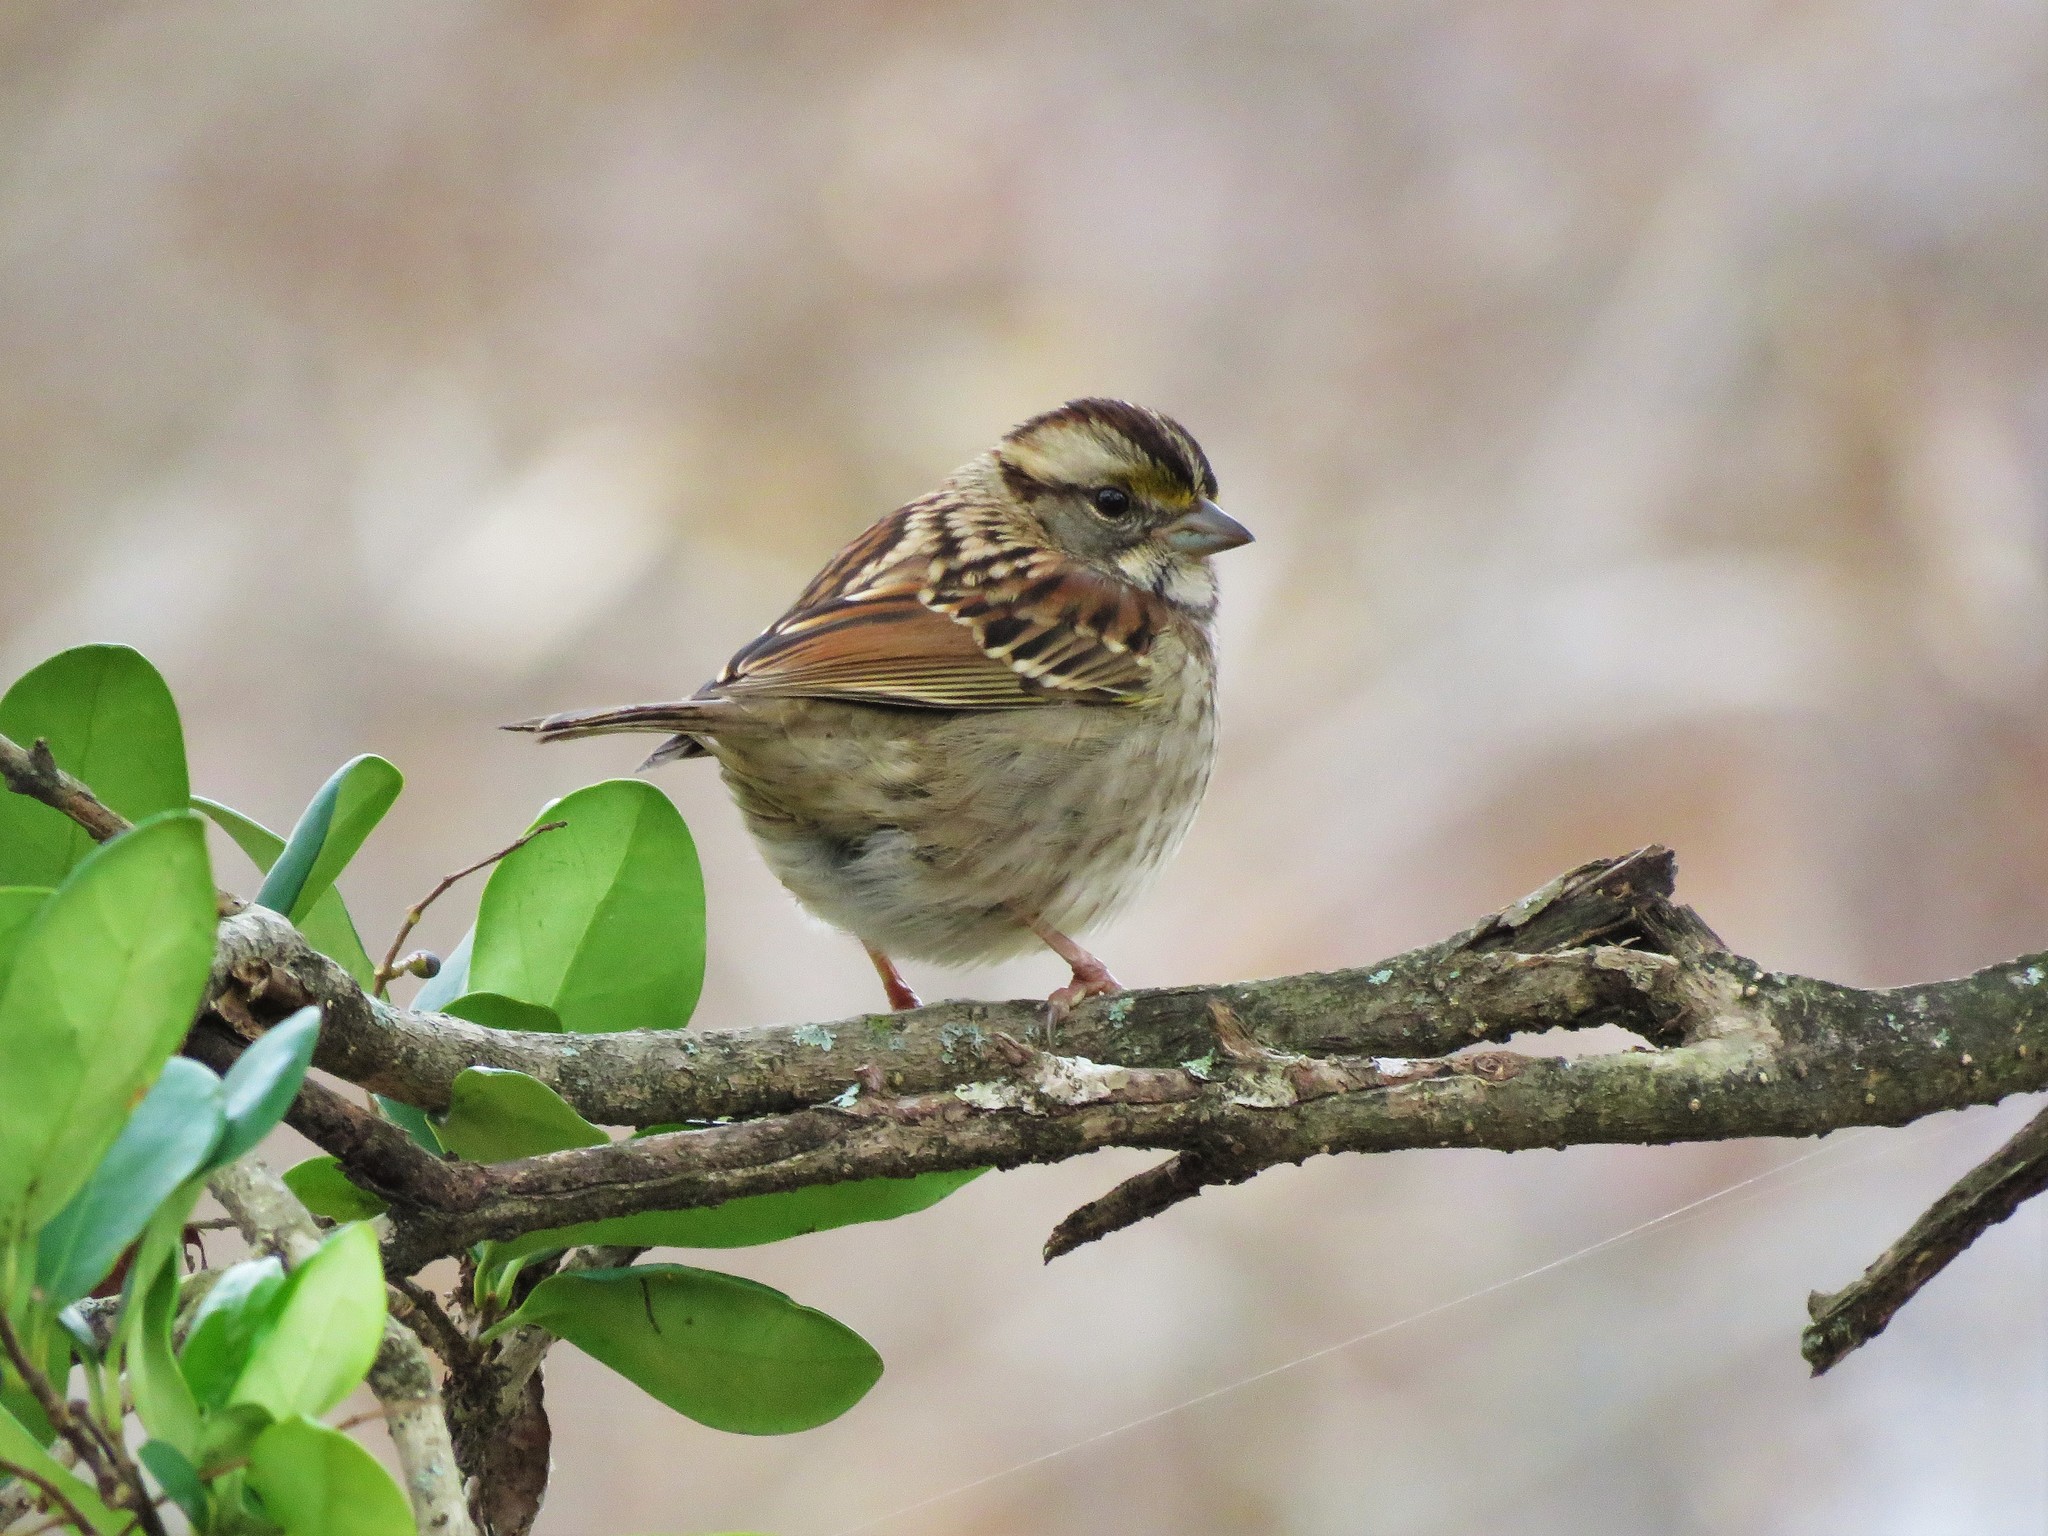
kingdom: Animalia
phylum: Chordata
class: Aves
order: Passeriformes
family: Passerellidae
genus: Zonotrichia
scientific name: Zonotrichia albicollis
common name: White-throated sparrow
